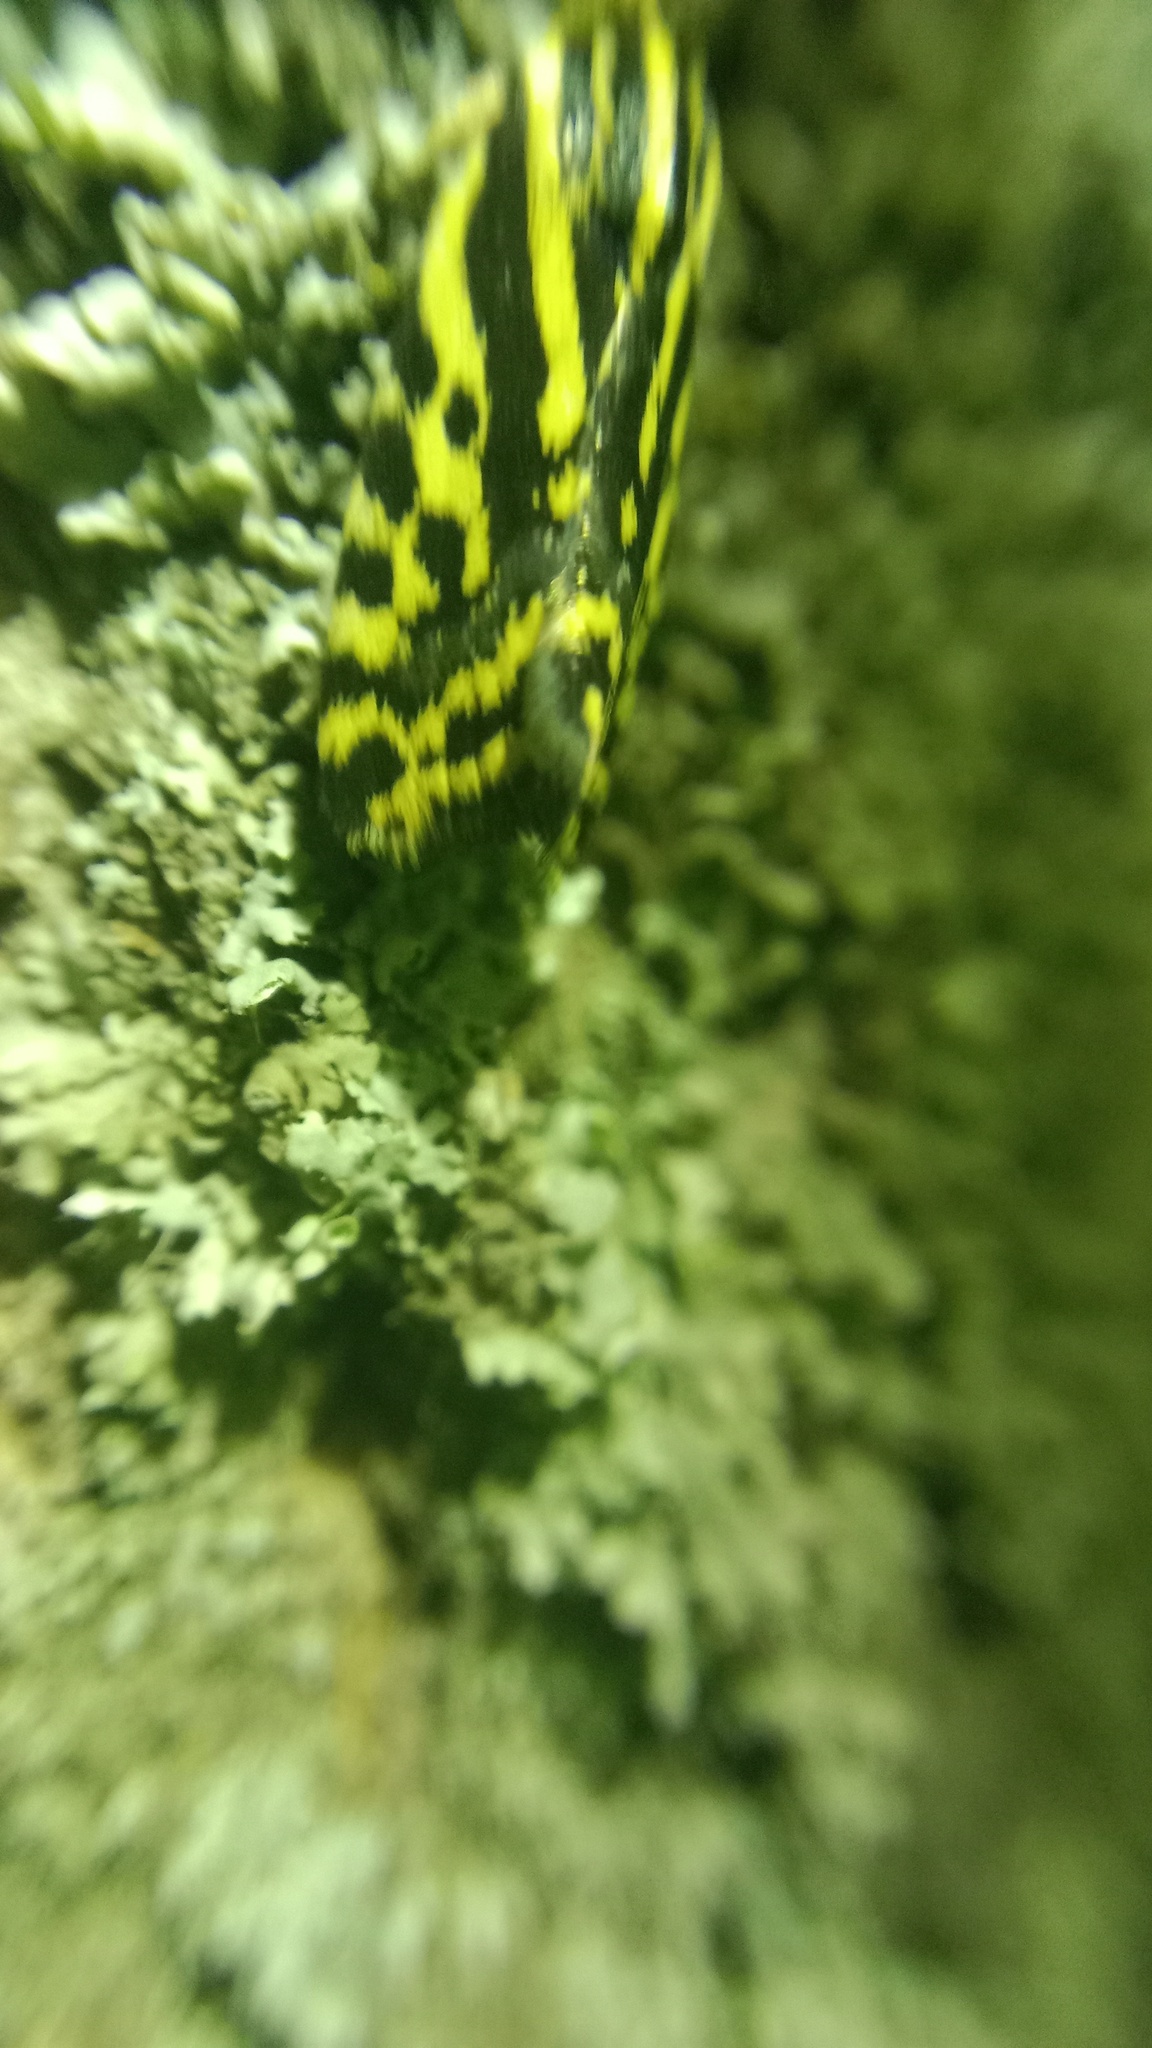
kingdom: Animalia
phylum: Arthropoda
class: Insecta
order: Lepidoptera
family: Noctuidae
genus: Acontia
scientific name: Acontia trabealis
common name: Spotted sulphur
